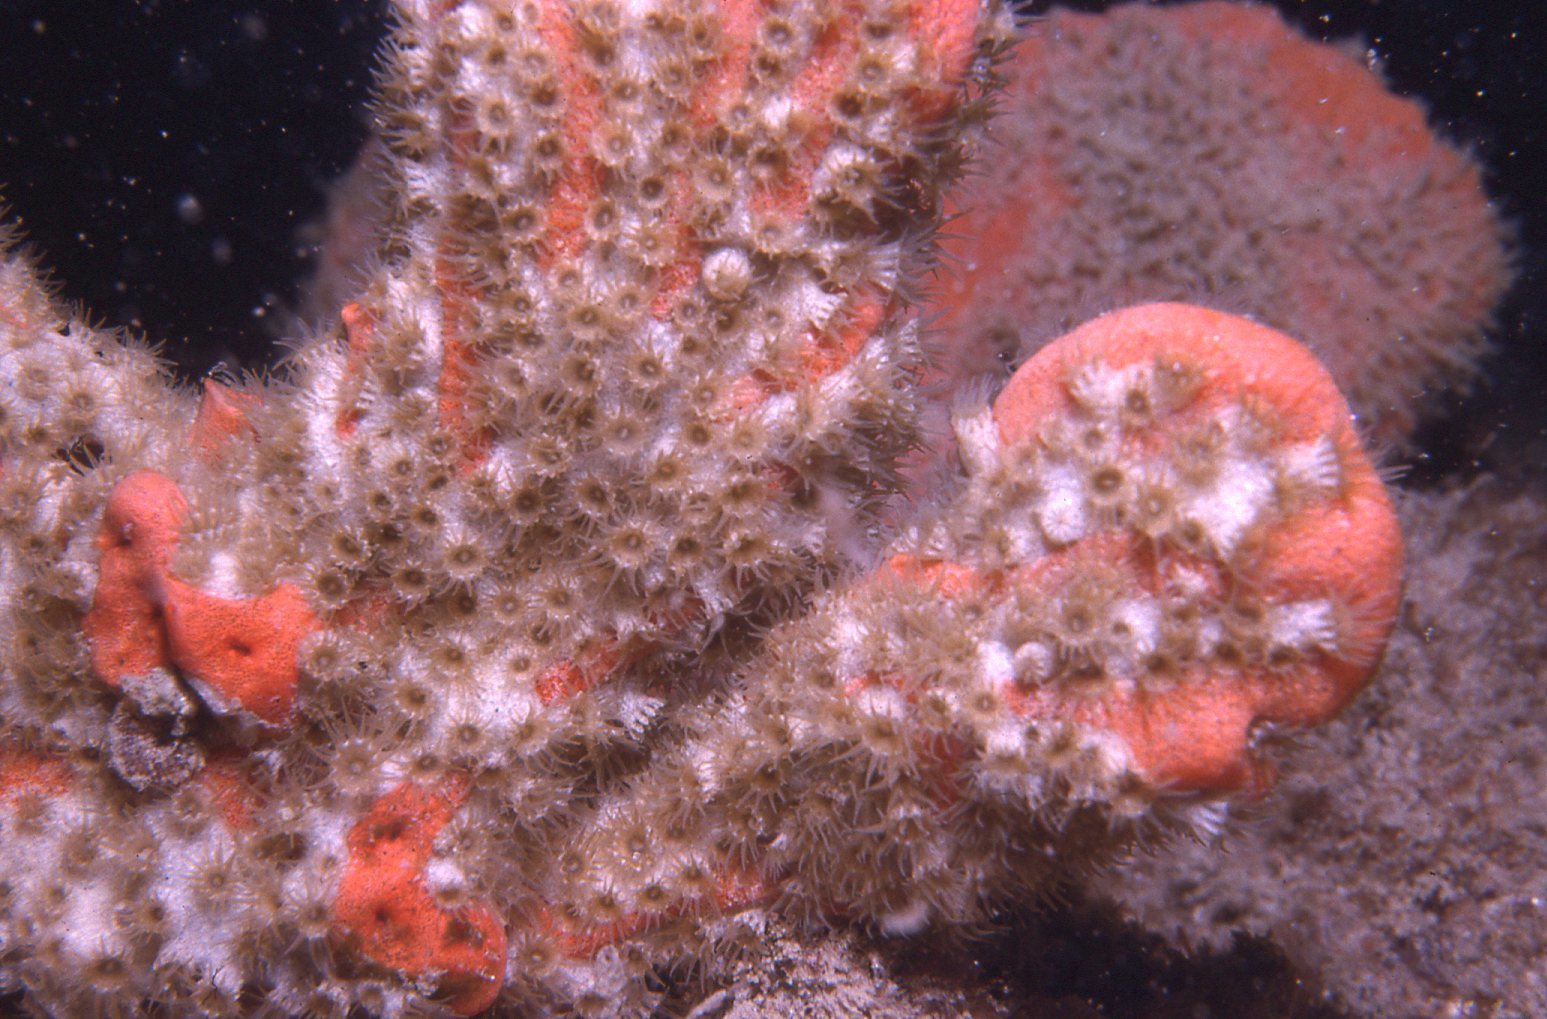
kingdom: Animalia
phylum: Cnidaria
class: Anthozoa
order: Zoantharia
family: Epizoanthidae
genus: Epizoanthus
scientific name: Epizoanthus sabulosus
